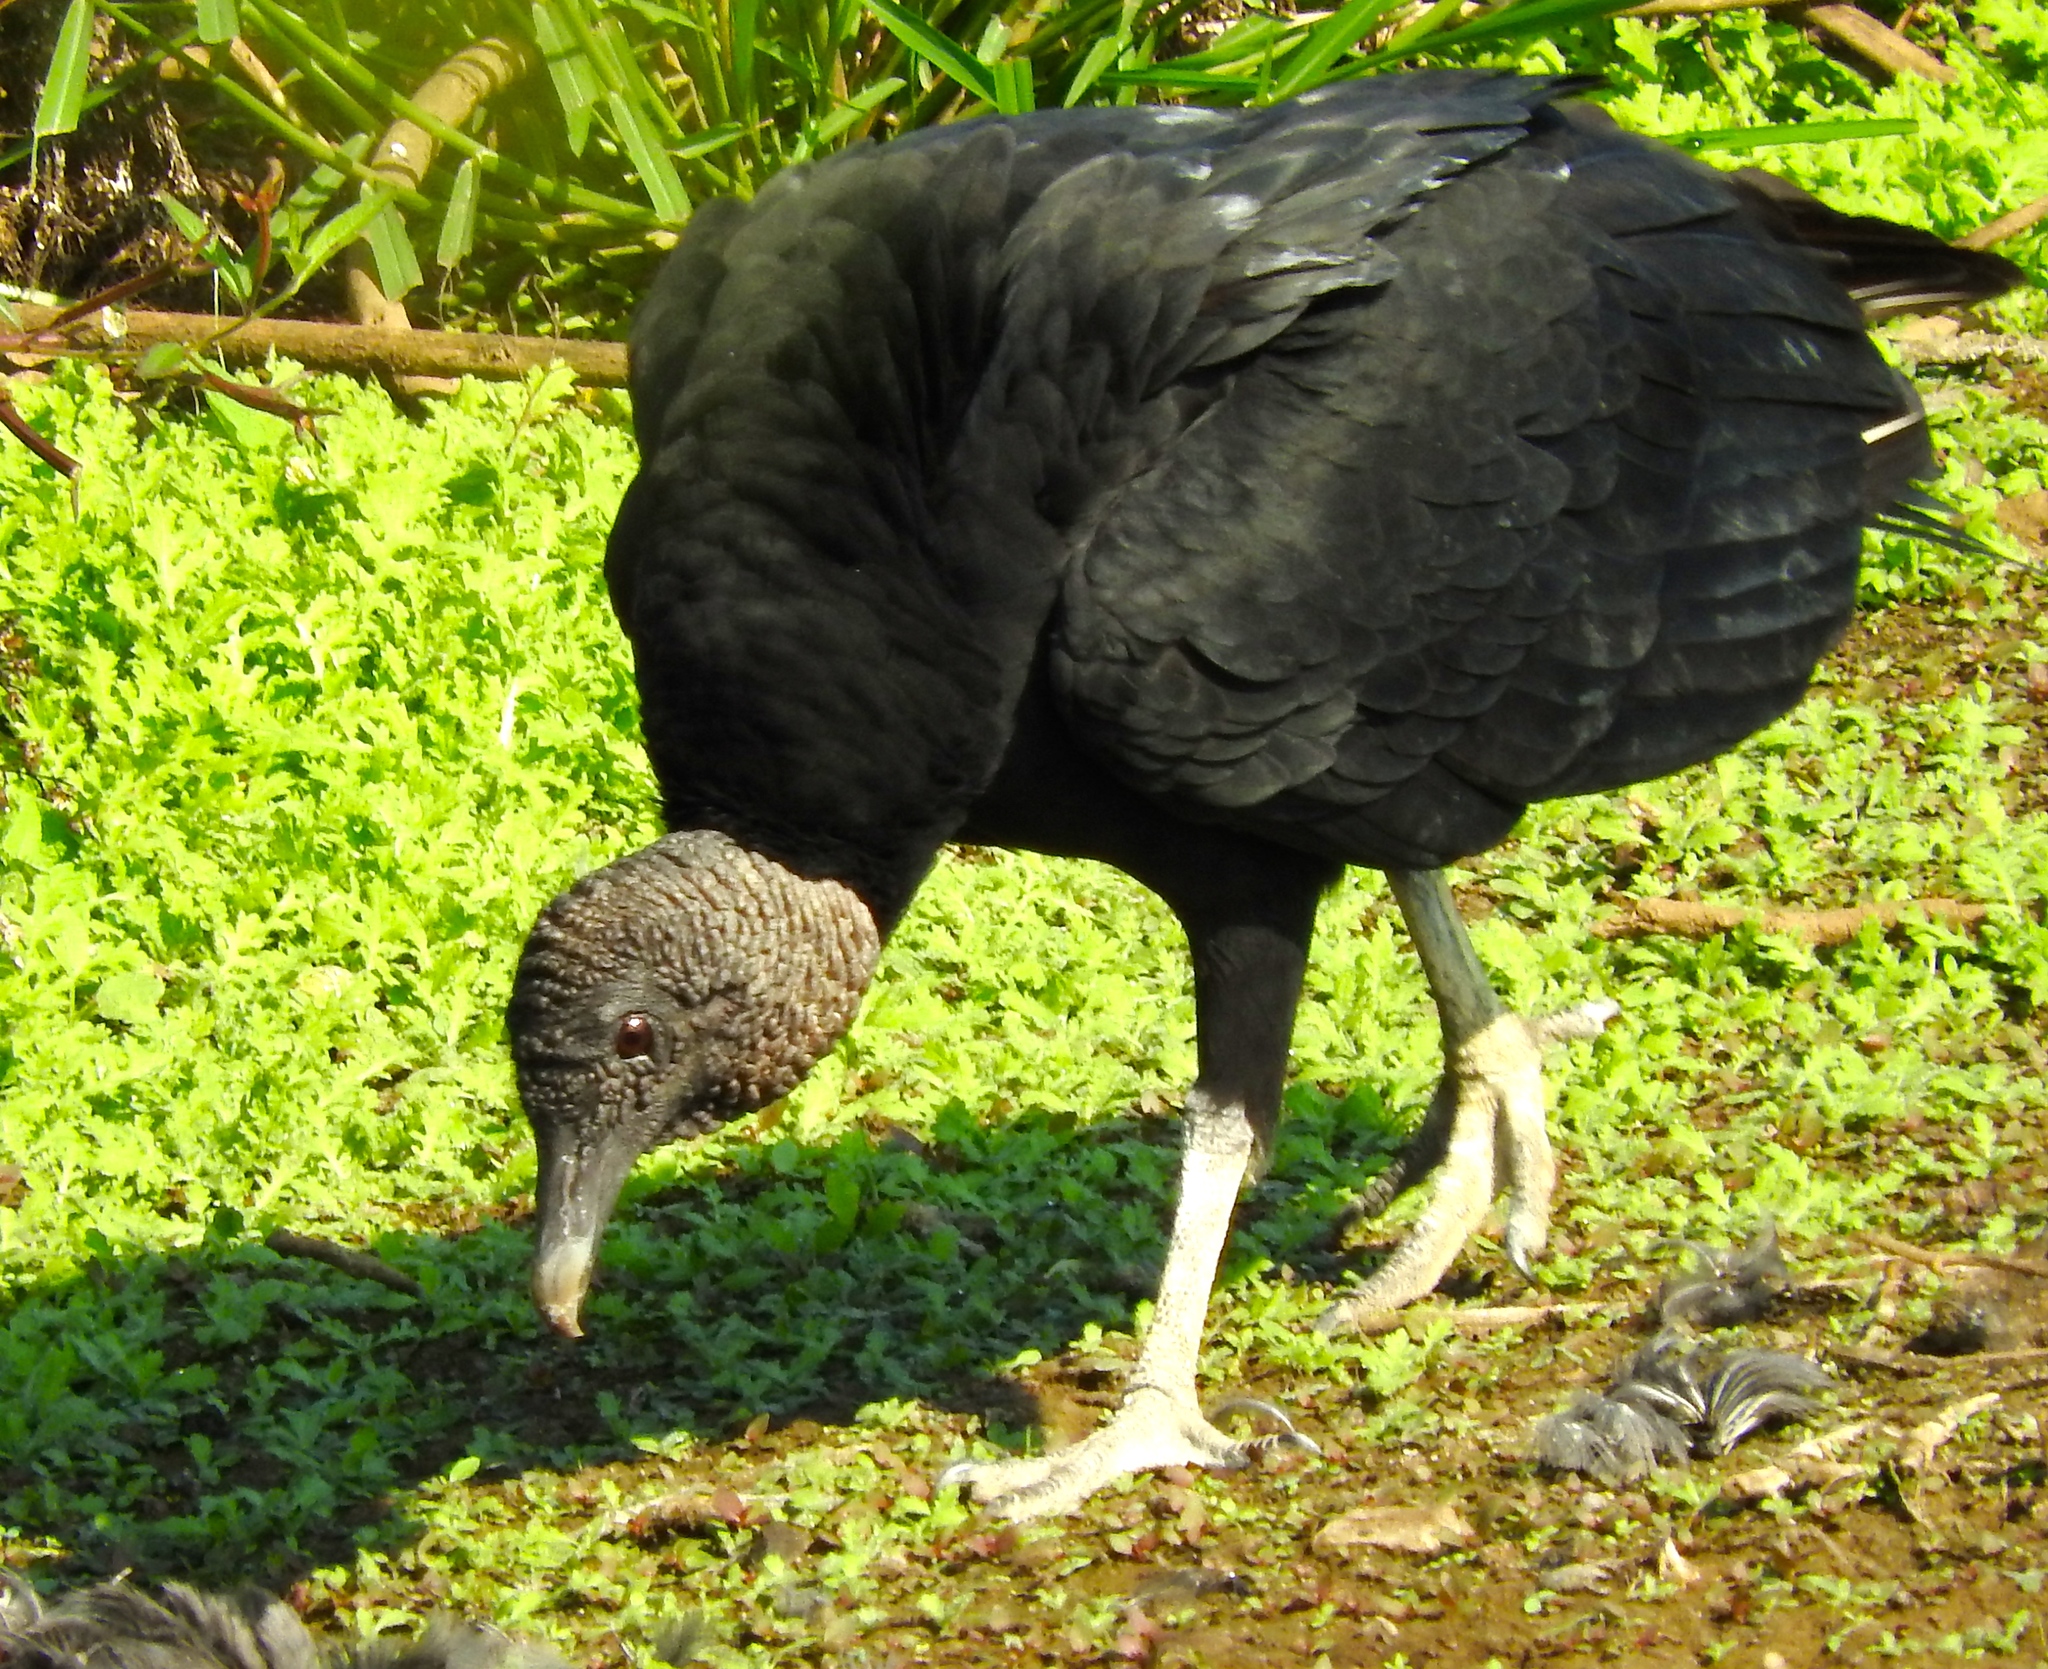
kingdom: Animalia
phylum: Chordata
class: Aves
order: Accipitriformes
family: Cathartidae
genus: Coragyps
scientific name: Coragyps atratus
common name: Black vulture
